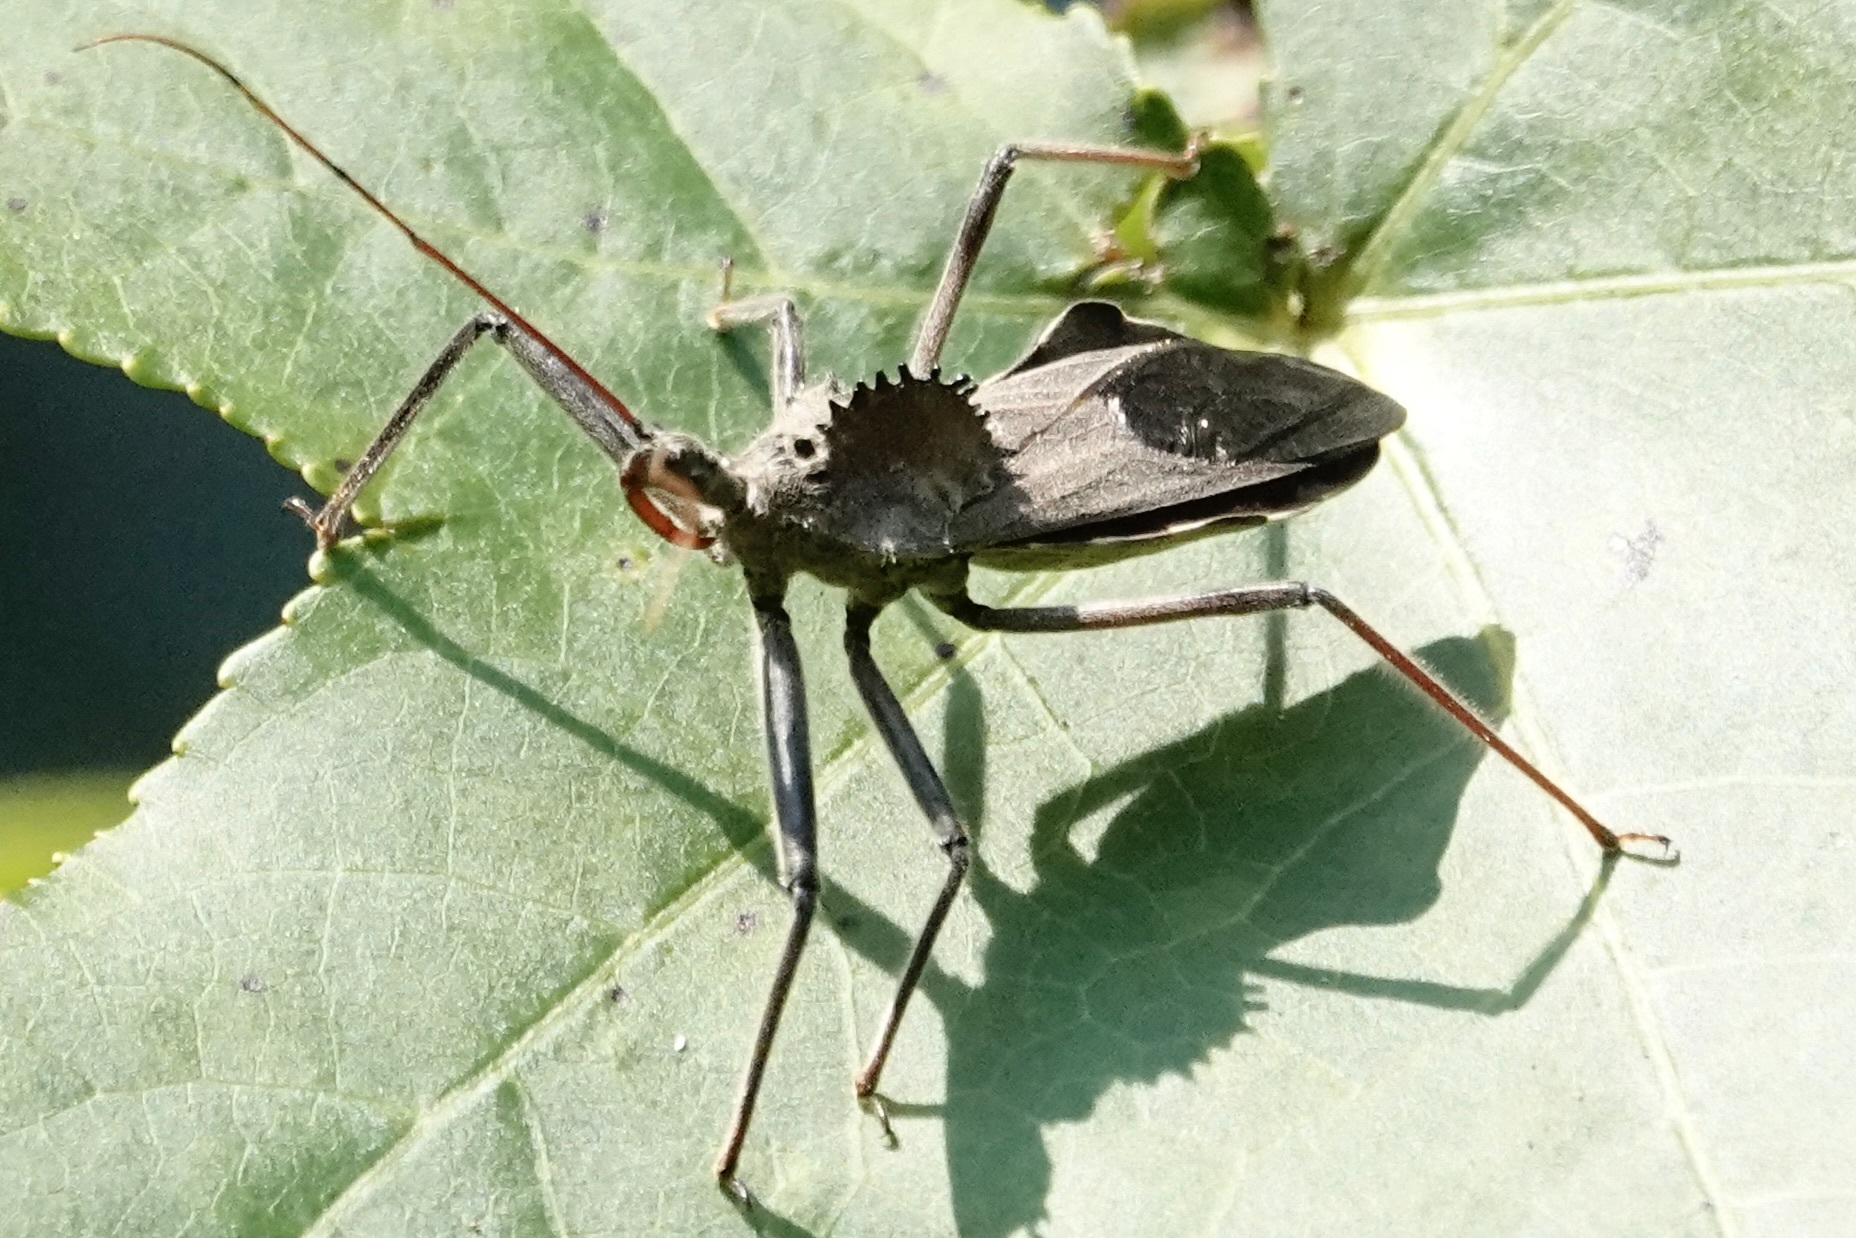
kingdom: Animalia
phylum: Arthropoda
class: Insecta
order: Hemiptera
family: Reduviidae
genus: Arilus
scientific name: Arilus cristatus
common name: North american wheel bug
